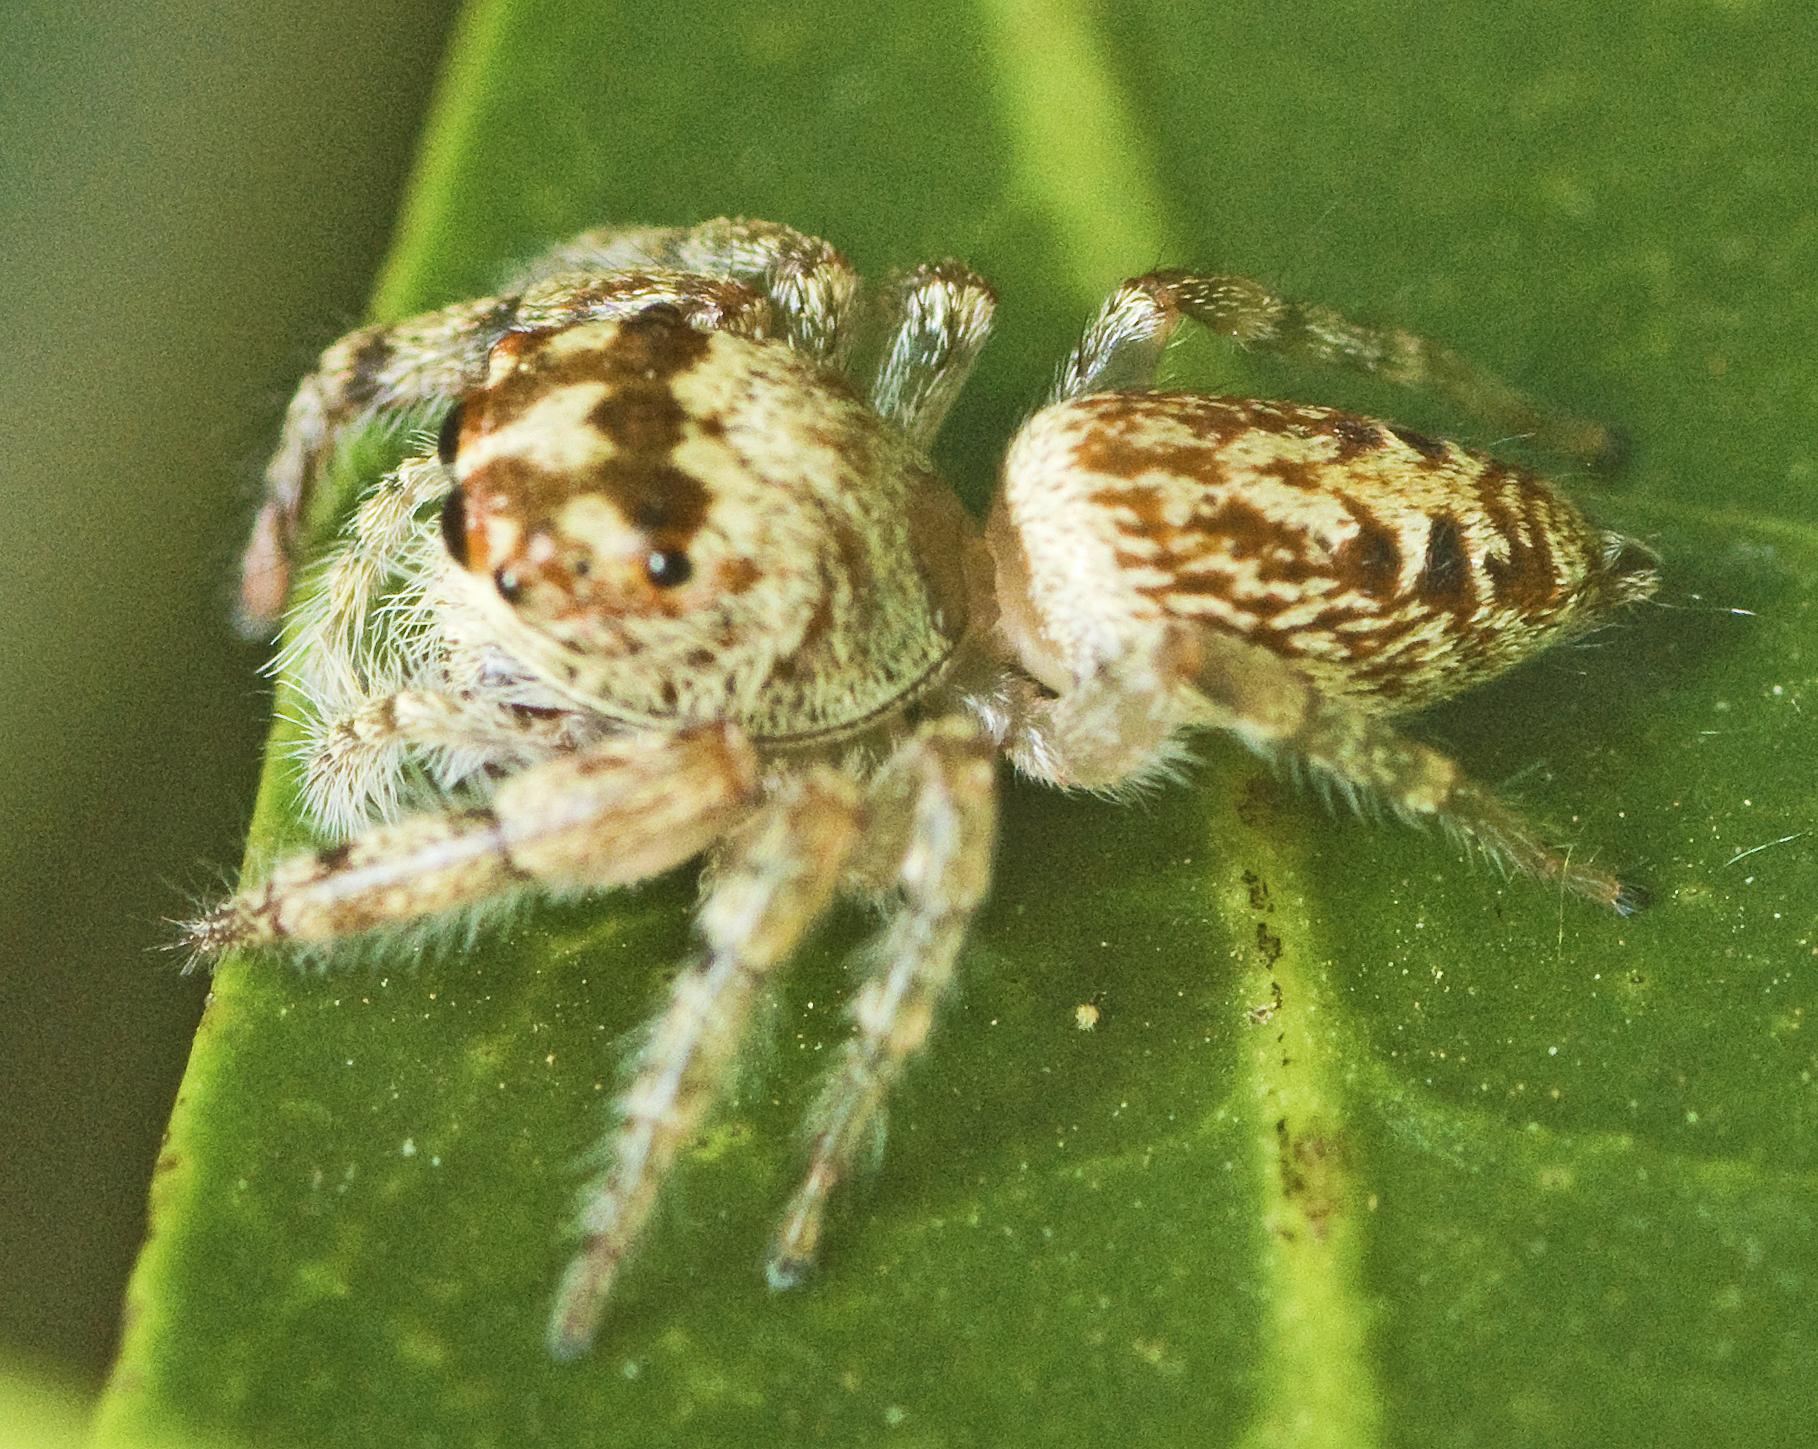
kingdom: Animalia
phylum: Arthropoda
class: Arachnida
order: Araneae
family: Salticidae
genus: Opisthoncus
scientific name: Opisthoncus quadratarius
